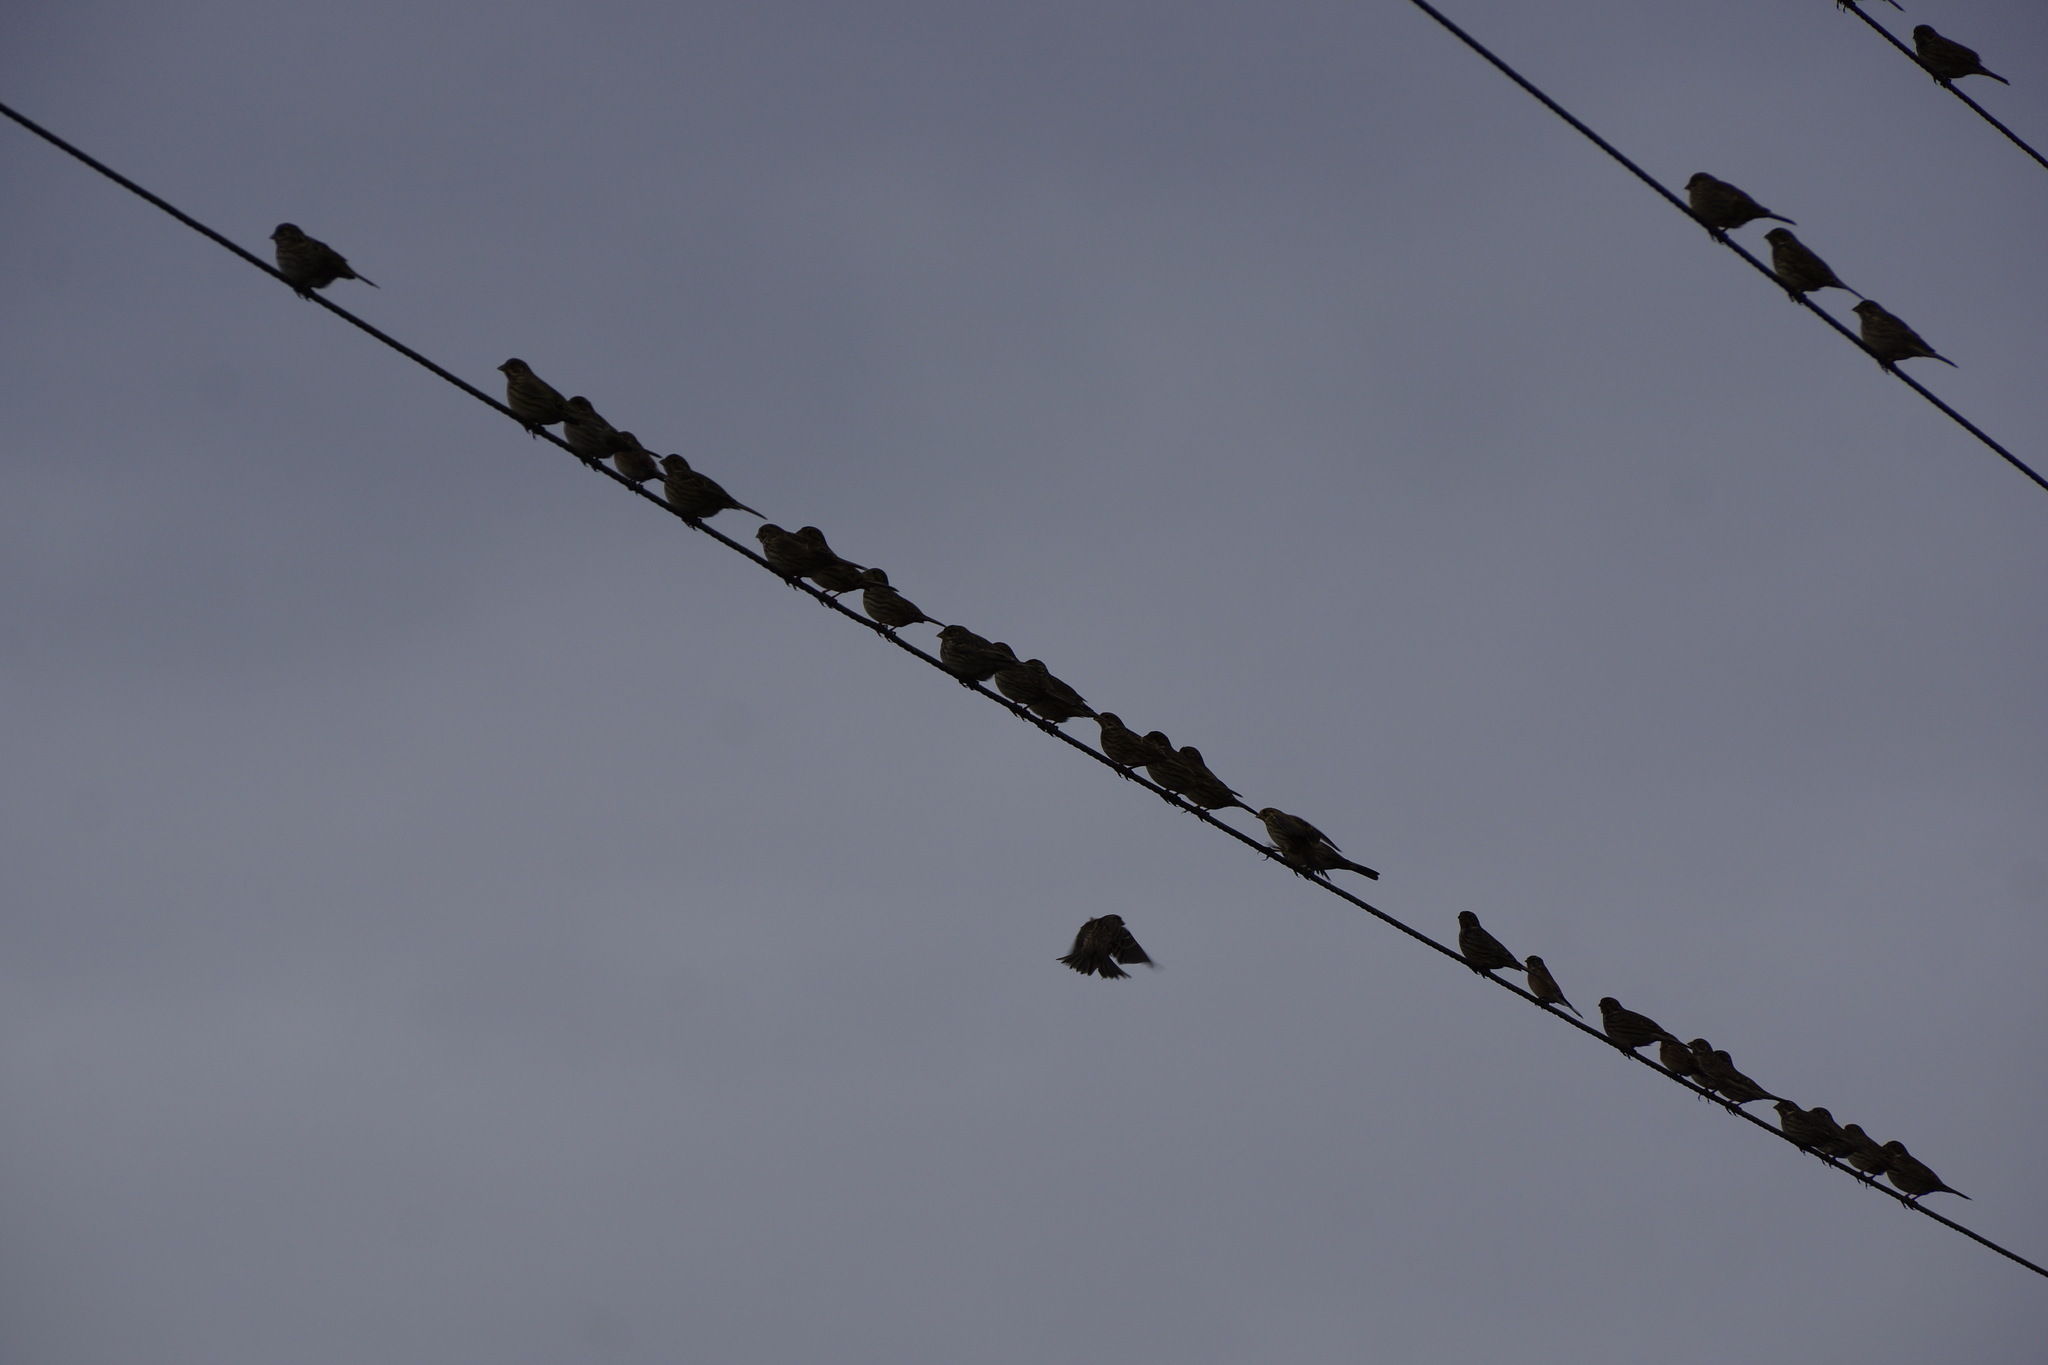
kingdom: Animalia
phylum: Chordata
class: Aves
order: Passeriformes
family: Emberizidae
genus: Emberiza
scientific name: Emberiza calandra
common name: Corn bunting
